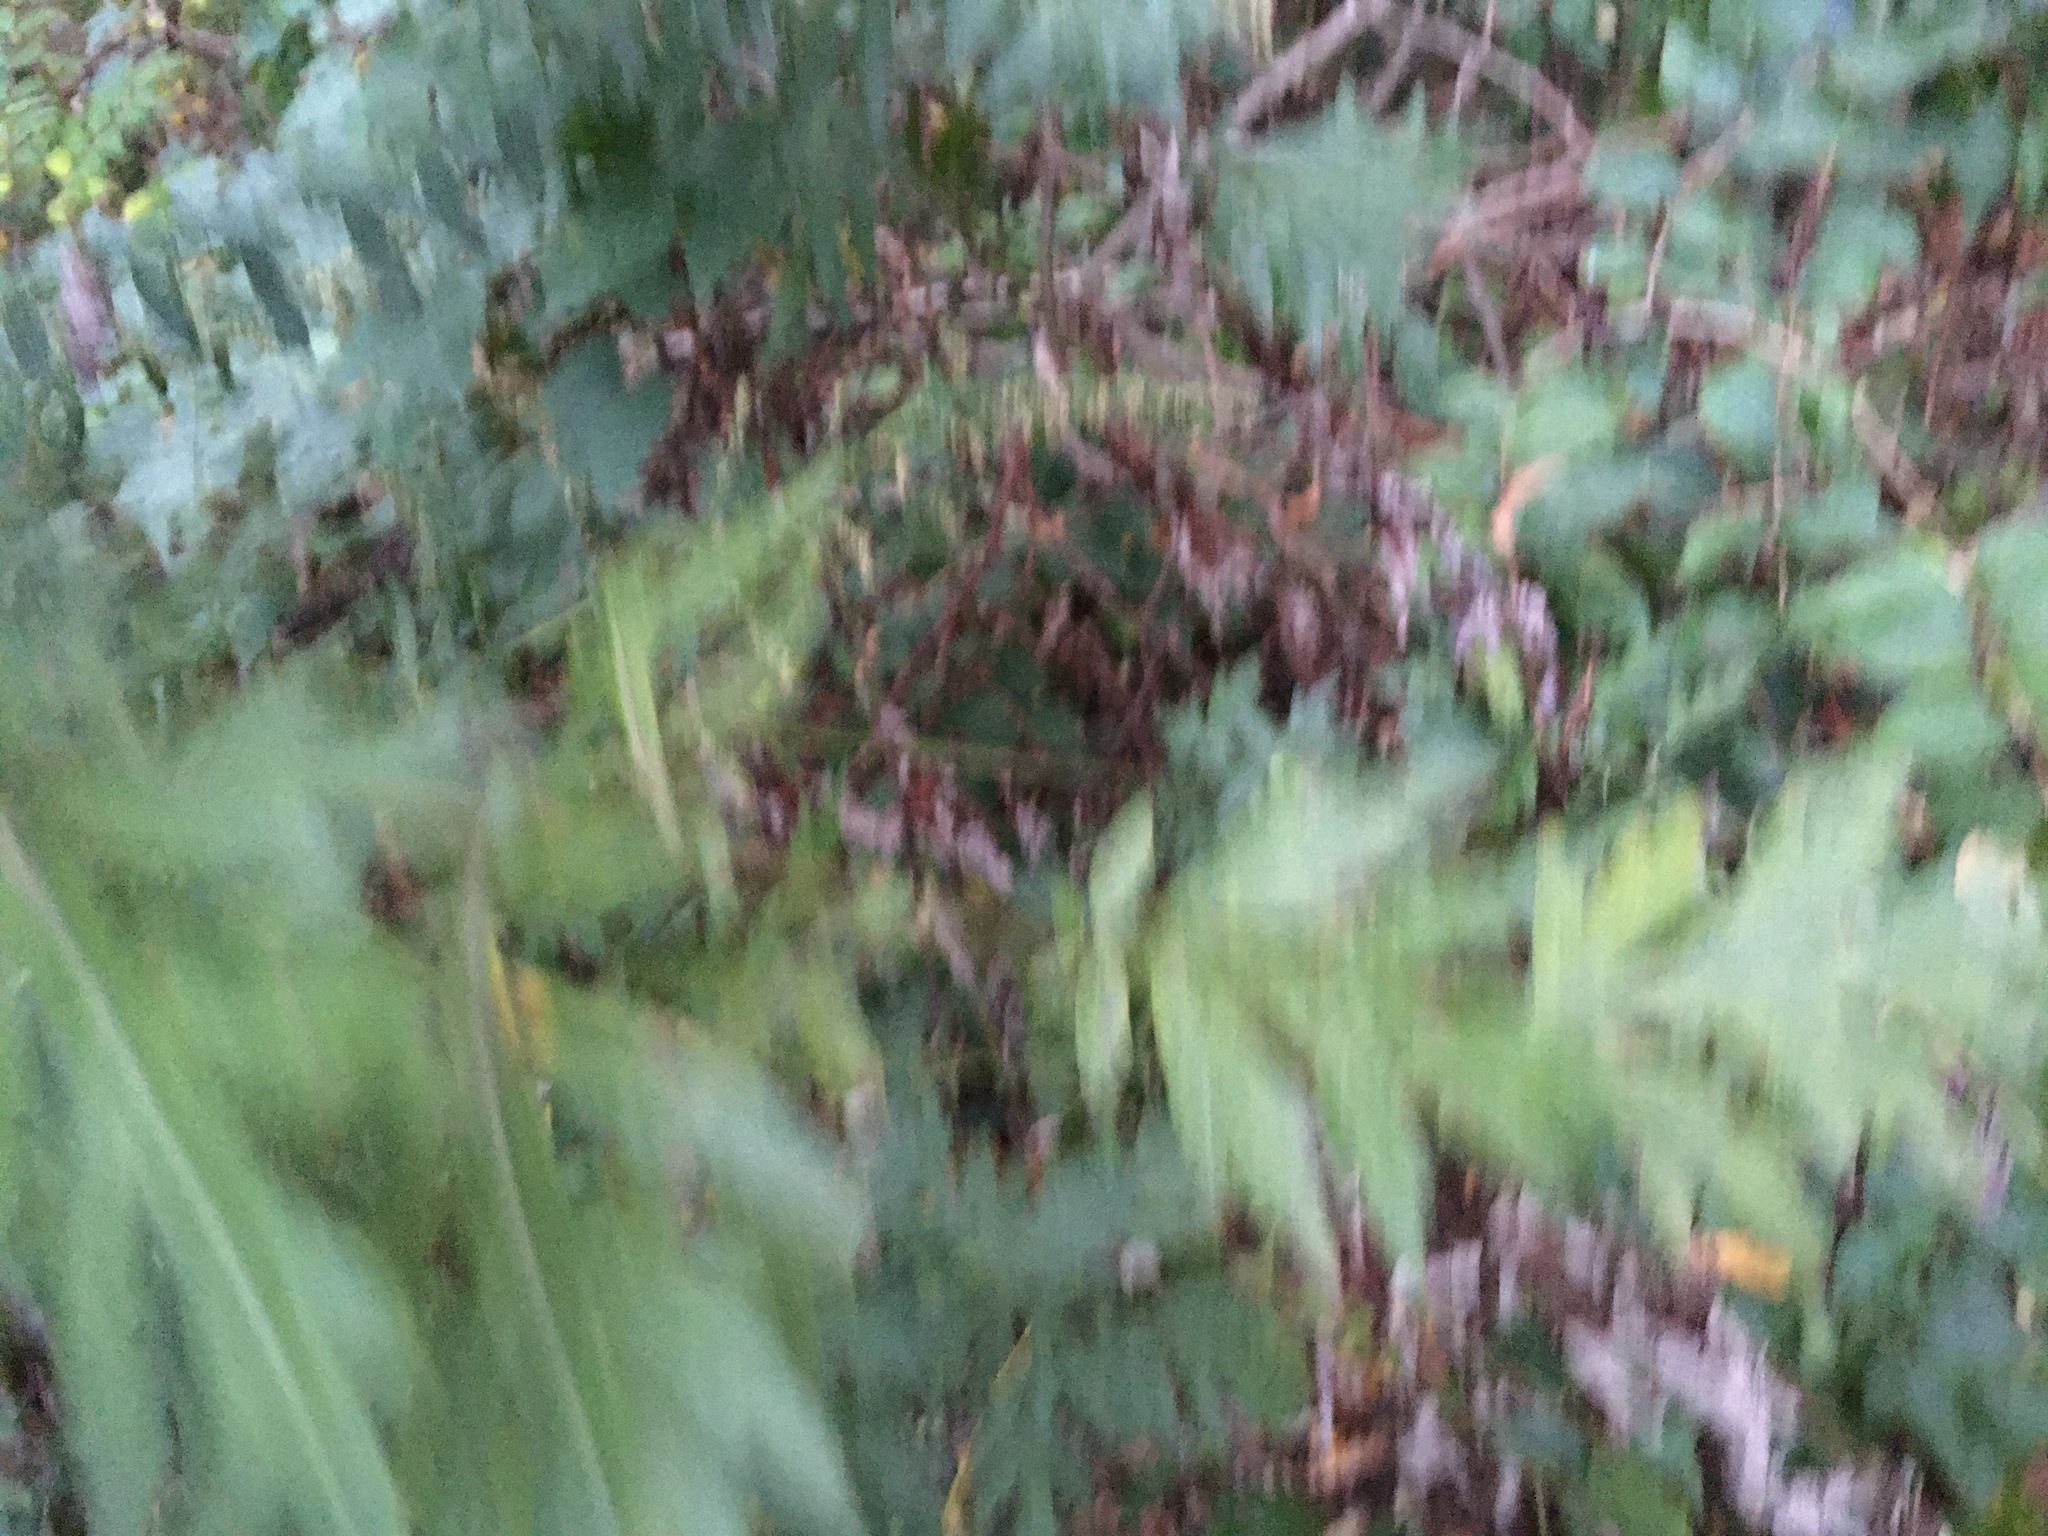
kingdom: Plantae
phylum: Tracheophyta
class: Magnoliopsida
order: Asterales
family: Asteraceae
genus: Artemisia
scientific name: Artemisia vulgaris
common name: Mugwort
